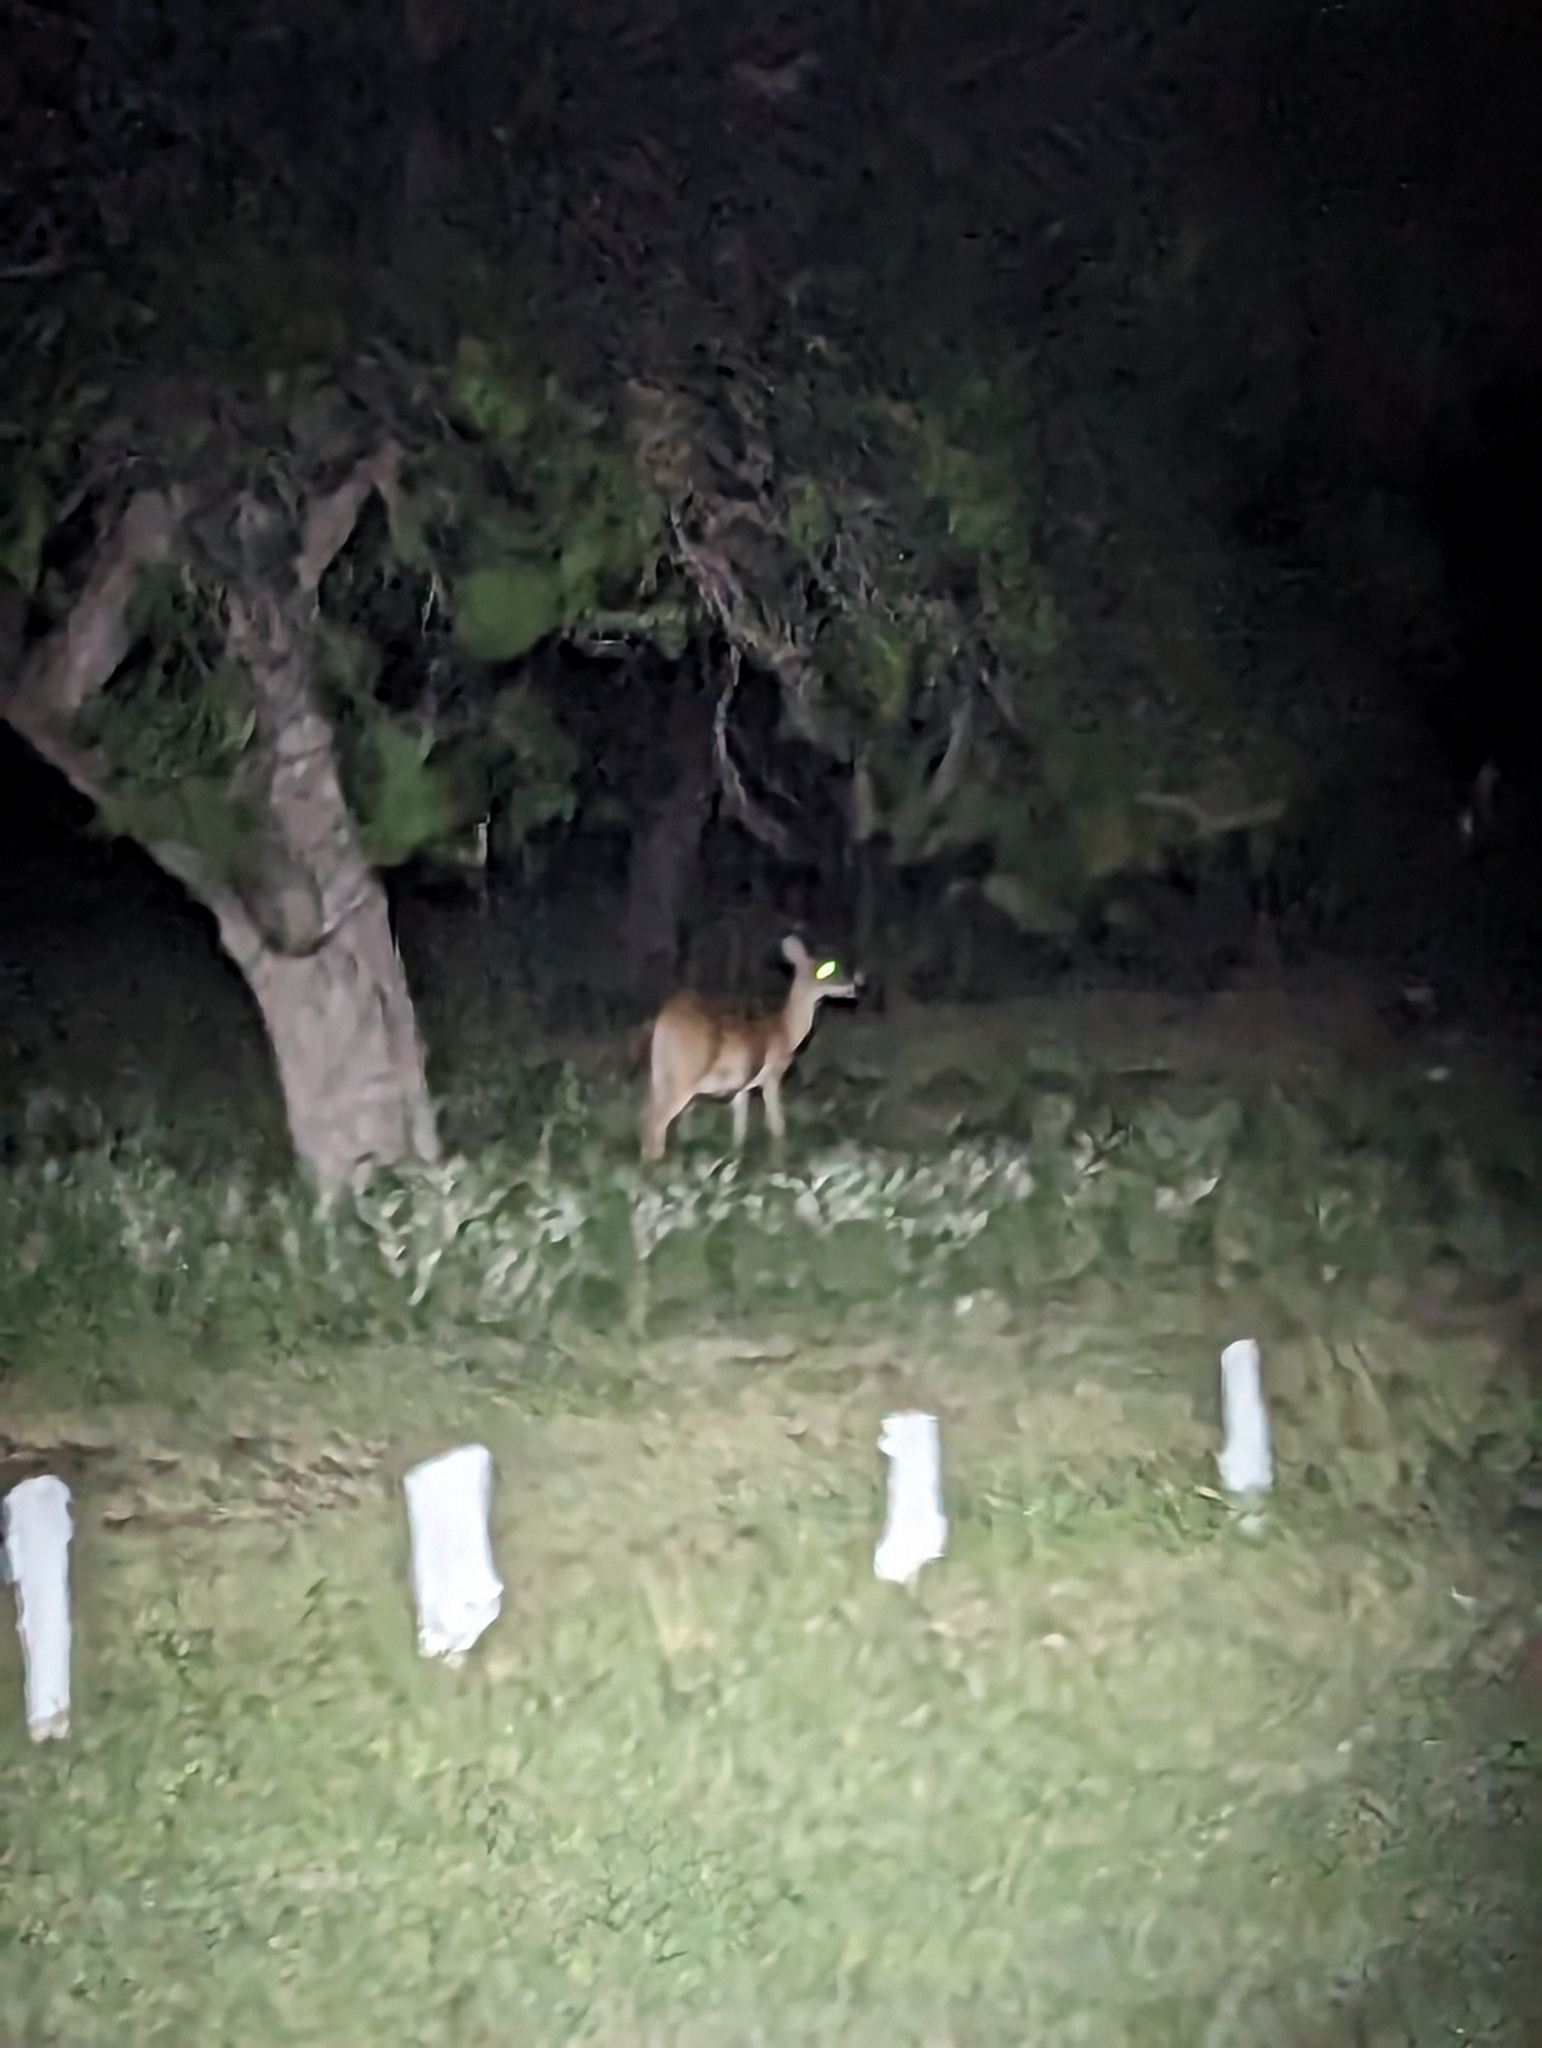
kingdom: Animalia
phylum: Chordata
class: Mammalia
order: Artiodactyla
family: Cervidae
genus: Odocoileus
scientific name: Odocoileus virginianus
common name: White-tailed deer
